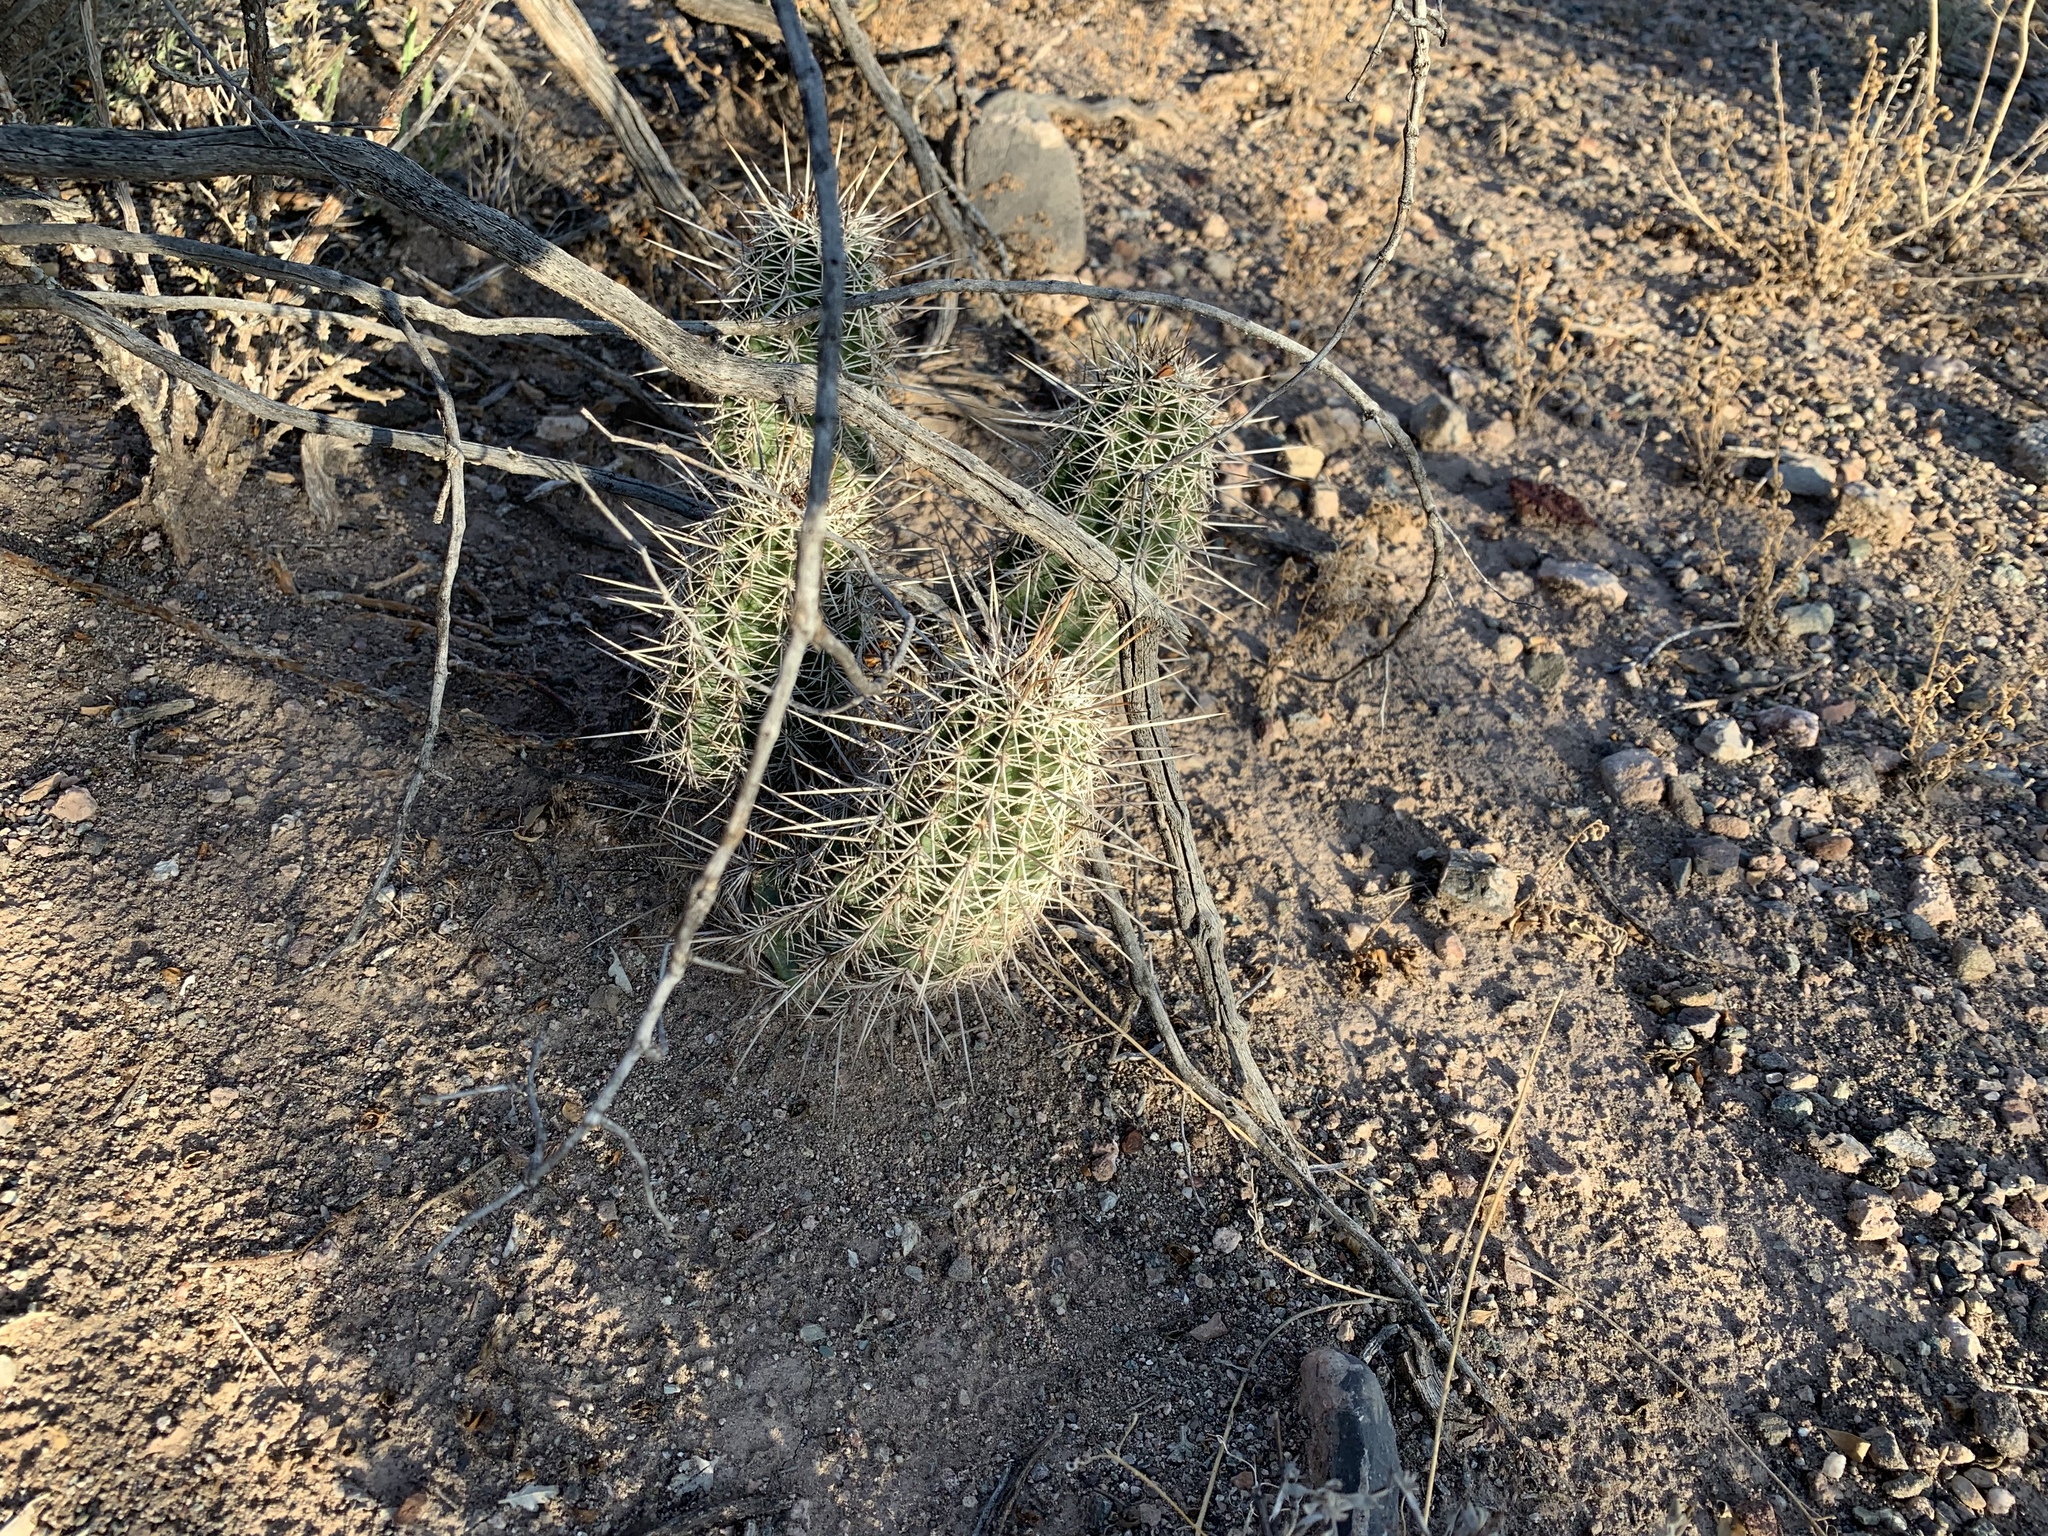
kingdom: Plantae
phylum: Tracheophyta
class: Magnoliopsida
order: Caryophyllales
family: Cactaceae
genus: Echinocereus
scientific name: Echinocereus fasciculatus
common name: Bundle hedgehog
